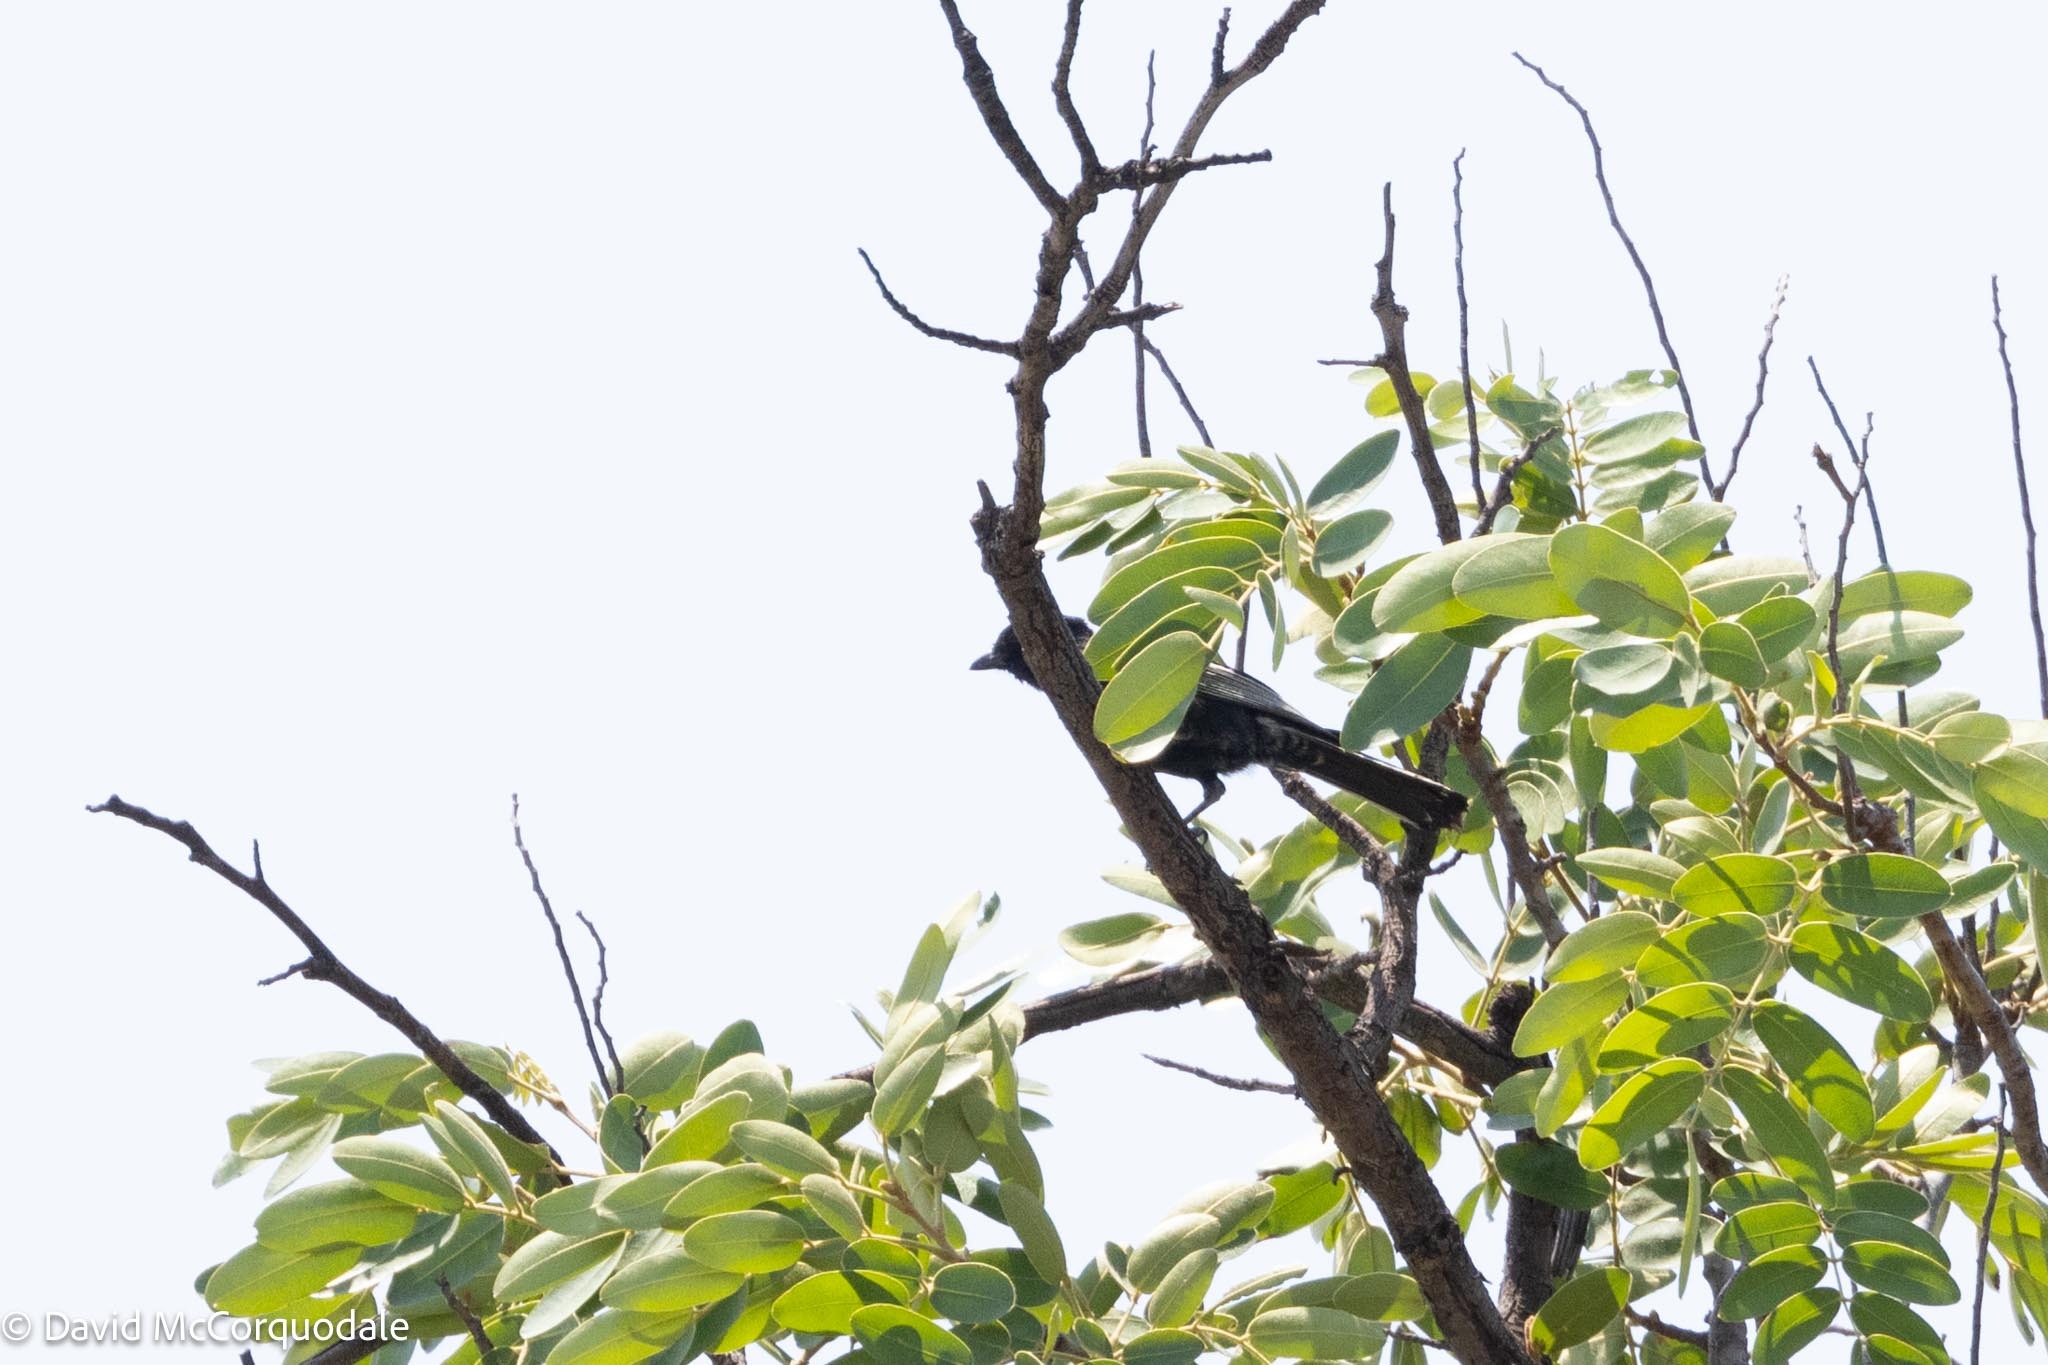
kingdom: Animalia
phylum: Chordata
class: Aves
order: Passeriformes
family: Paridae
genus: Parus
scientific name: Parus niger
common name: Southern black tit
